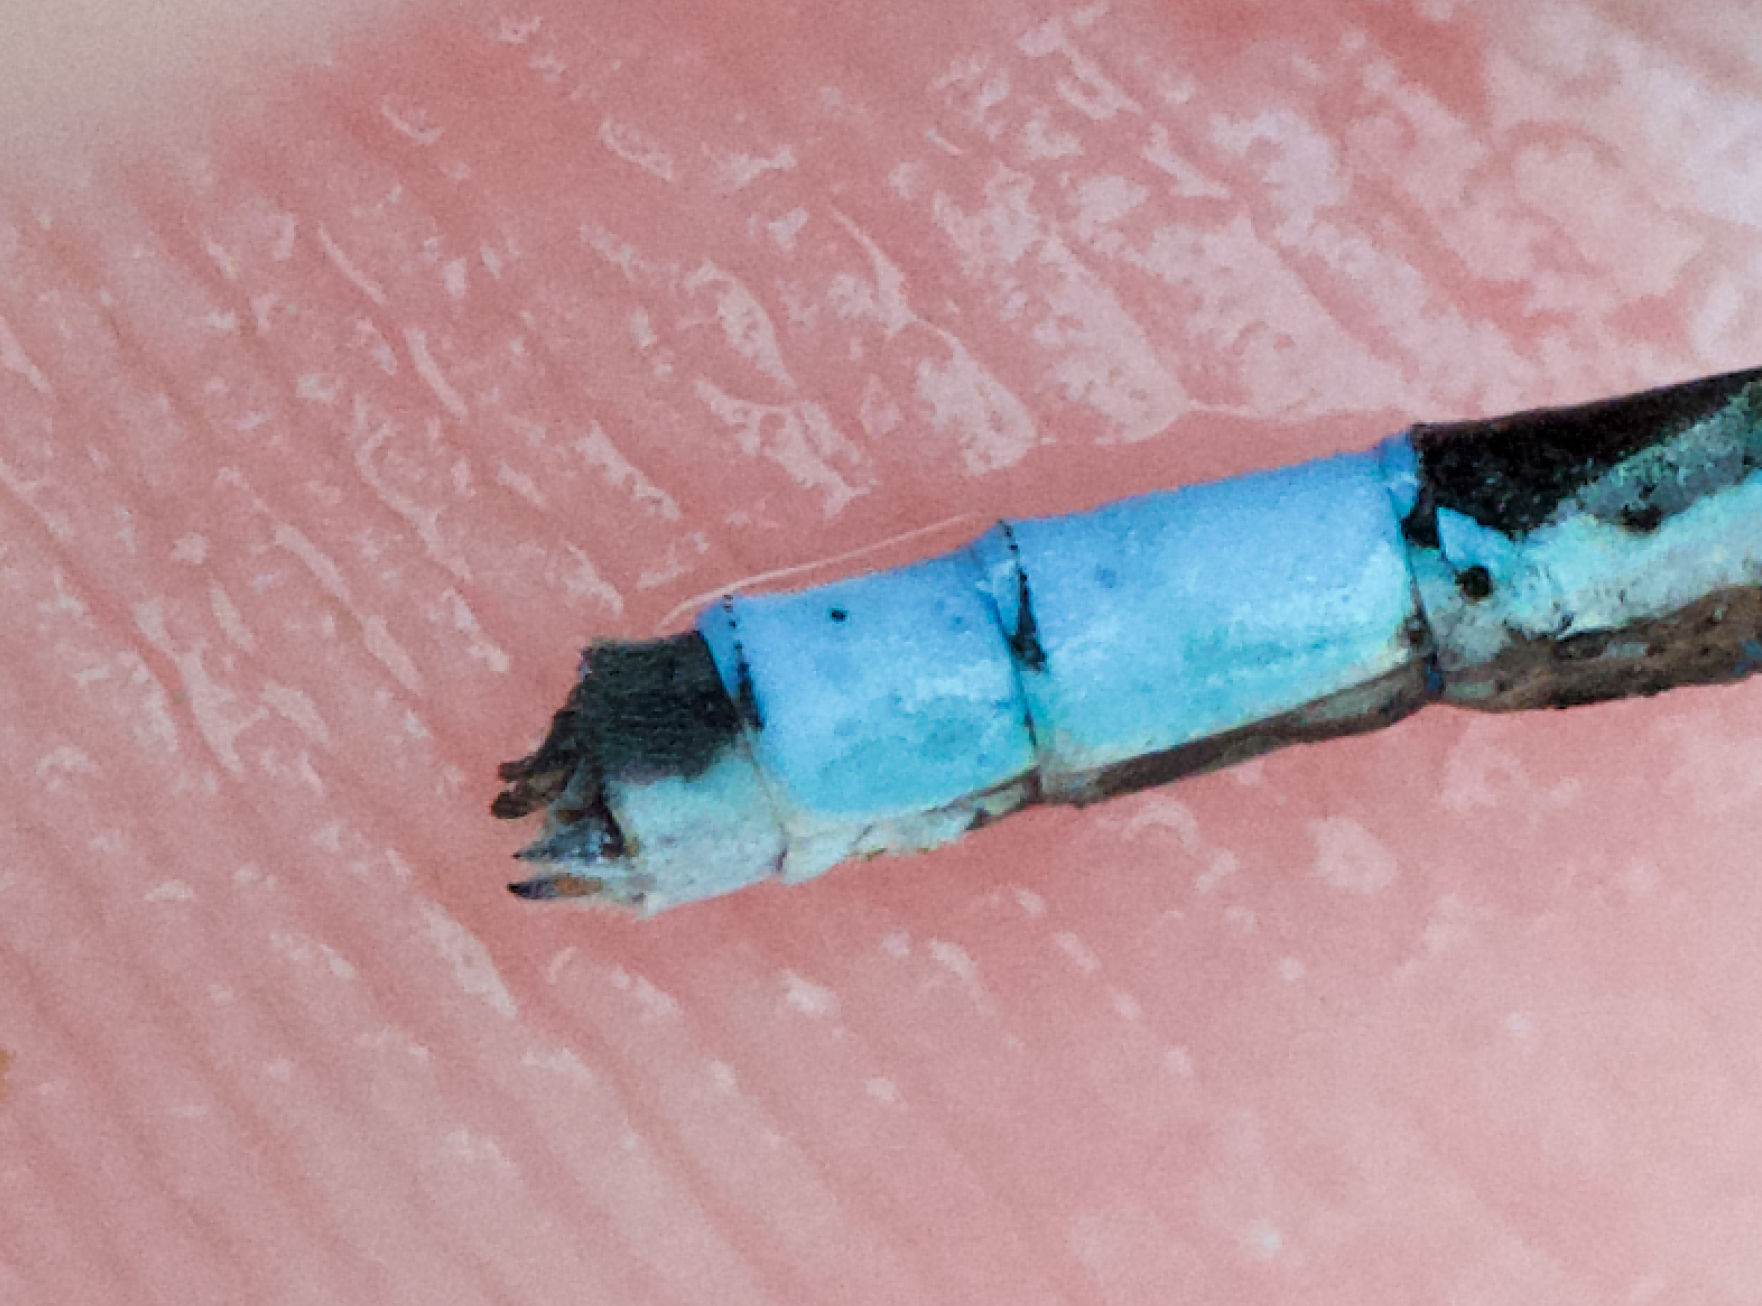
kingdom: Animalia
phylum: Arthropoda
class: Insecta
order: Odonata
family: Coenagrionidae
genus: Enallagma
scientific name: Enallagma hageni
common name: Hagen's bluet
